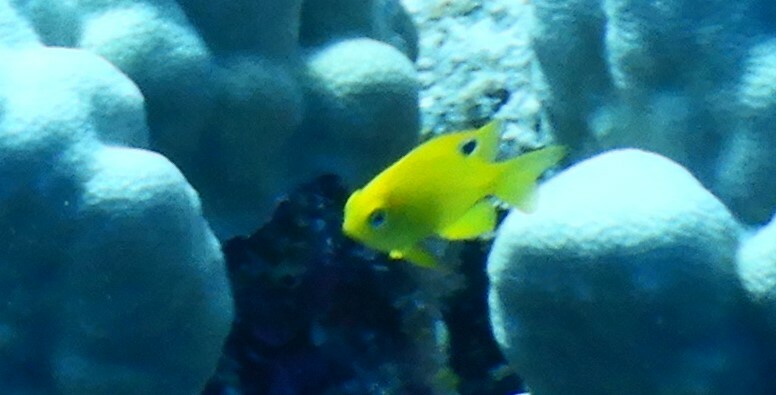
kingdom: Animalia
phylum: Chordata
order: Perciformes
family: Pomacentridae
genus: Pomacentrus
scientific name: Pomacentrus sulfureus
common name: Sulfur damsel
